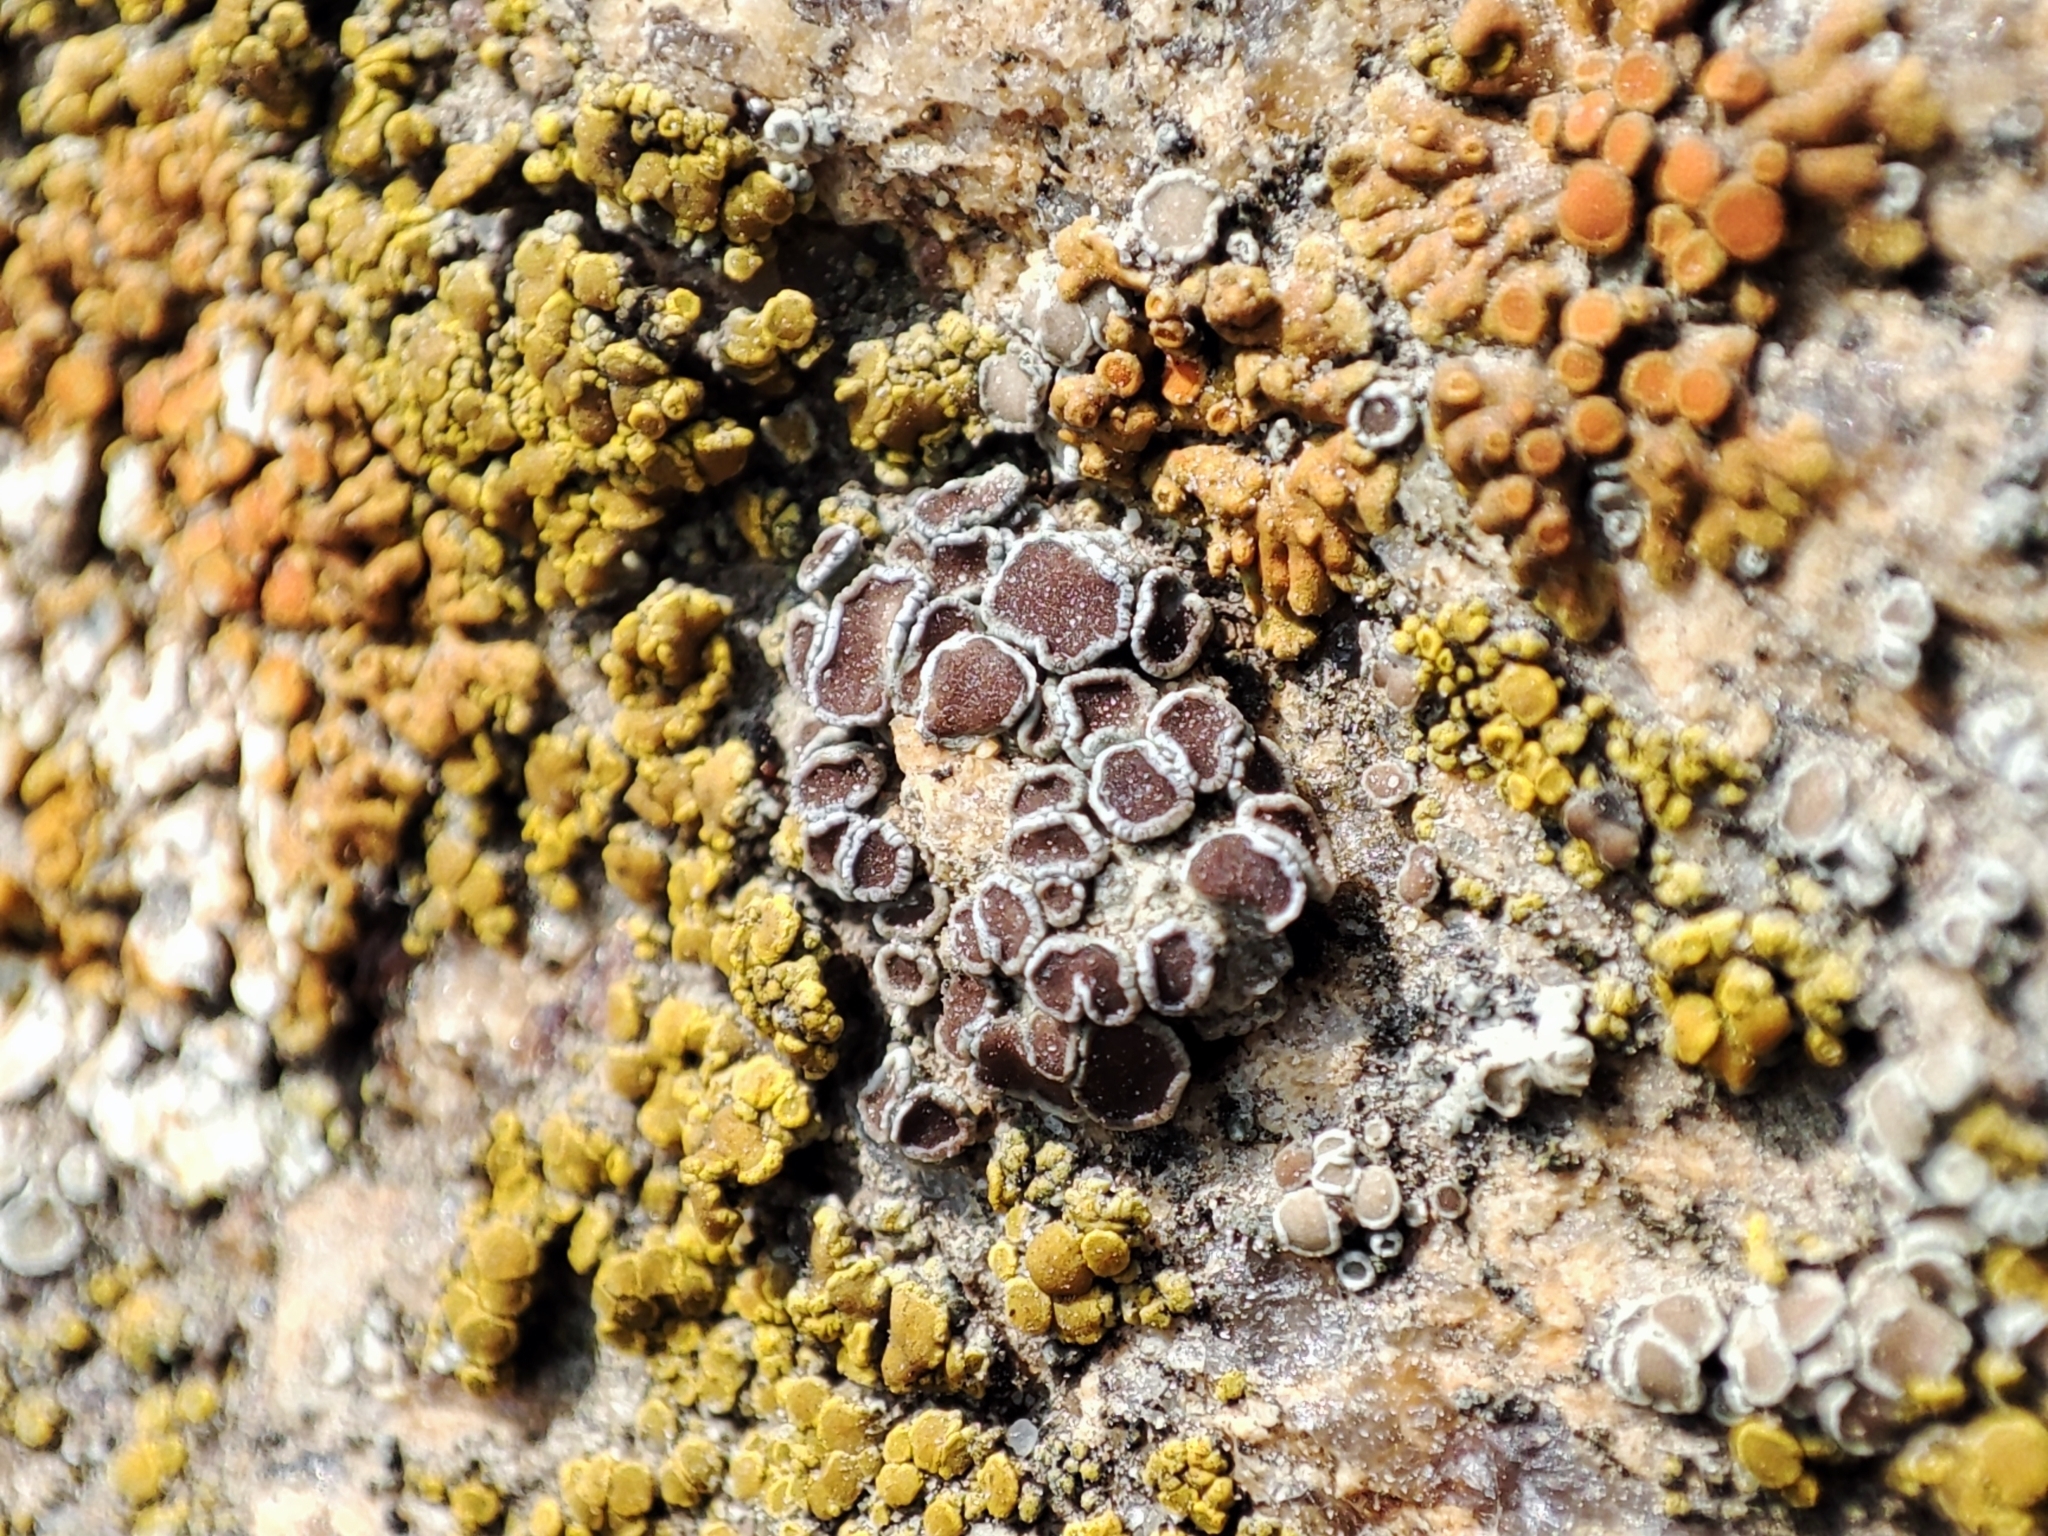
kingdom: Fungi
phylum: Ascomycota
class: Lecanoromycetes
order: Lecanorales
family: Lecanoraceae
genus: Polyozosia
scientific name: Polyozosia dispersa
